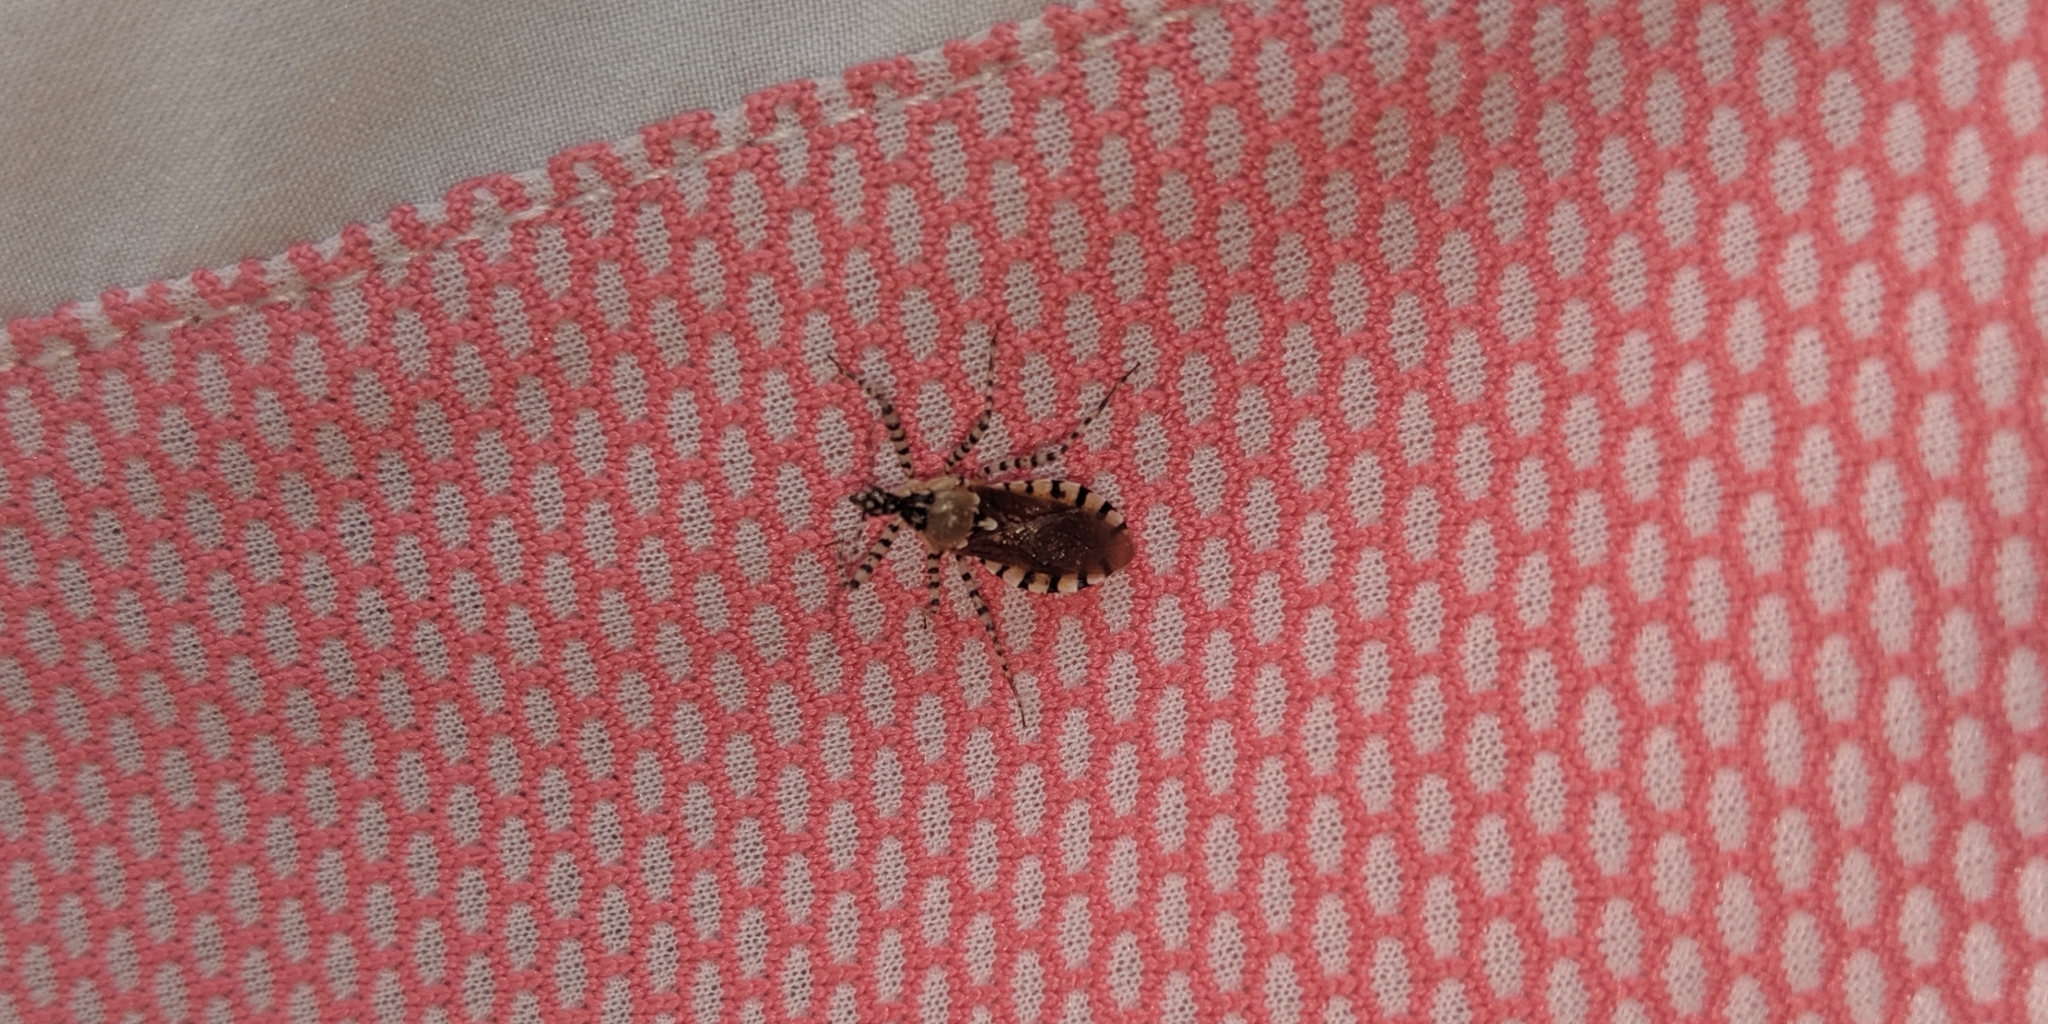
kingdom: Animalia
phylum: Arthropoda
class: Insecta
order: Hemiptera
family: Reduviidae
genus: Pselliopus
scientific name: Pselliopus cinctus
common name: Ringed assassin bug
